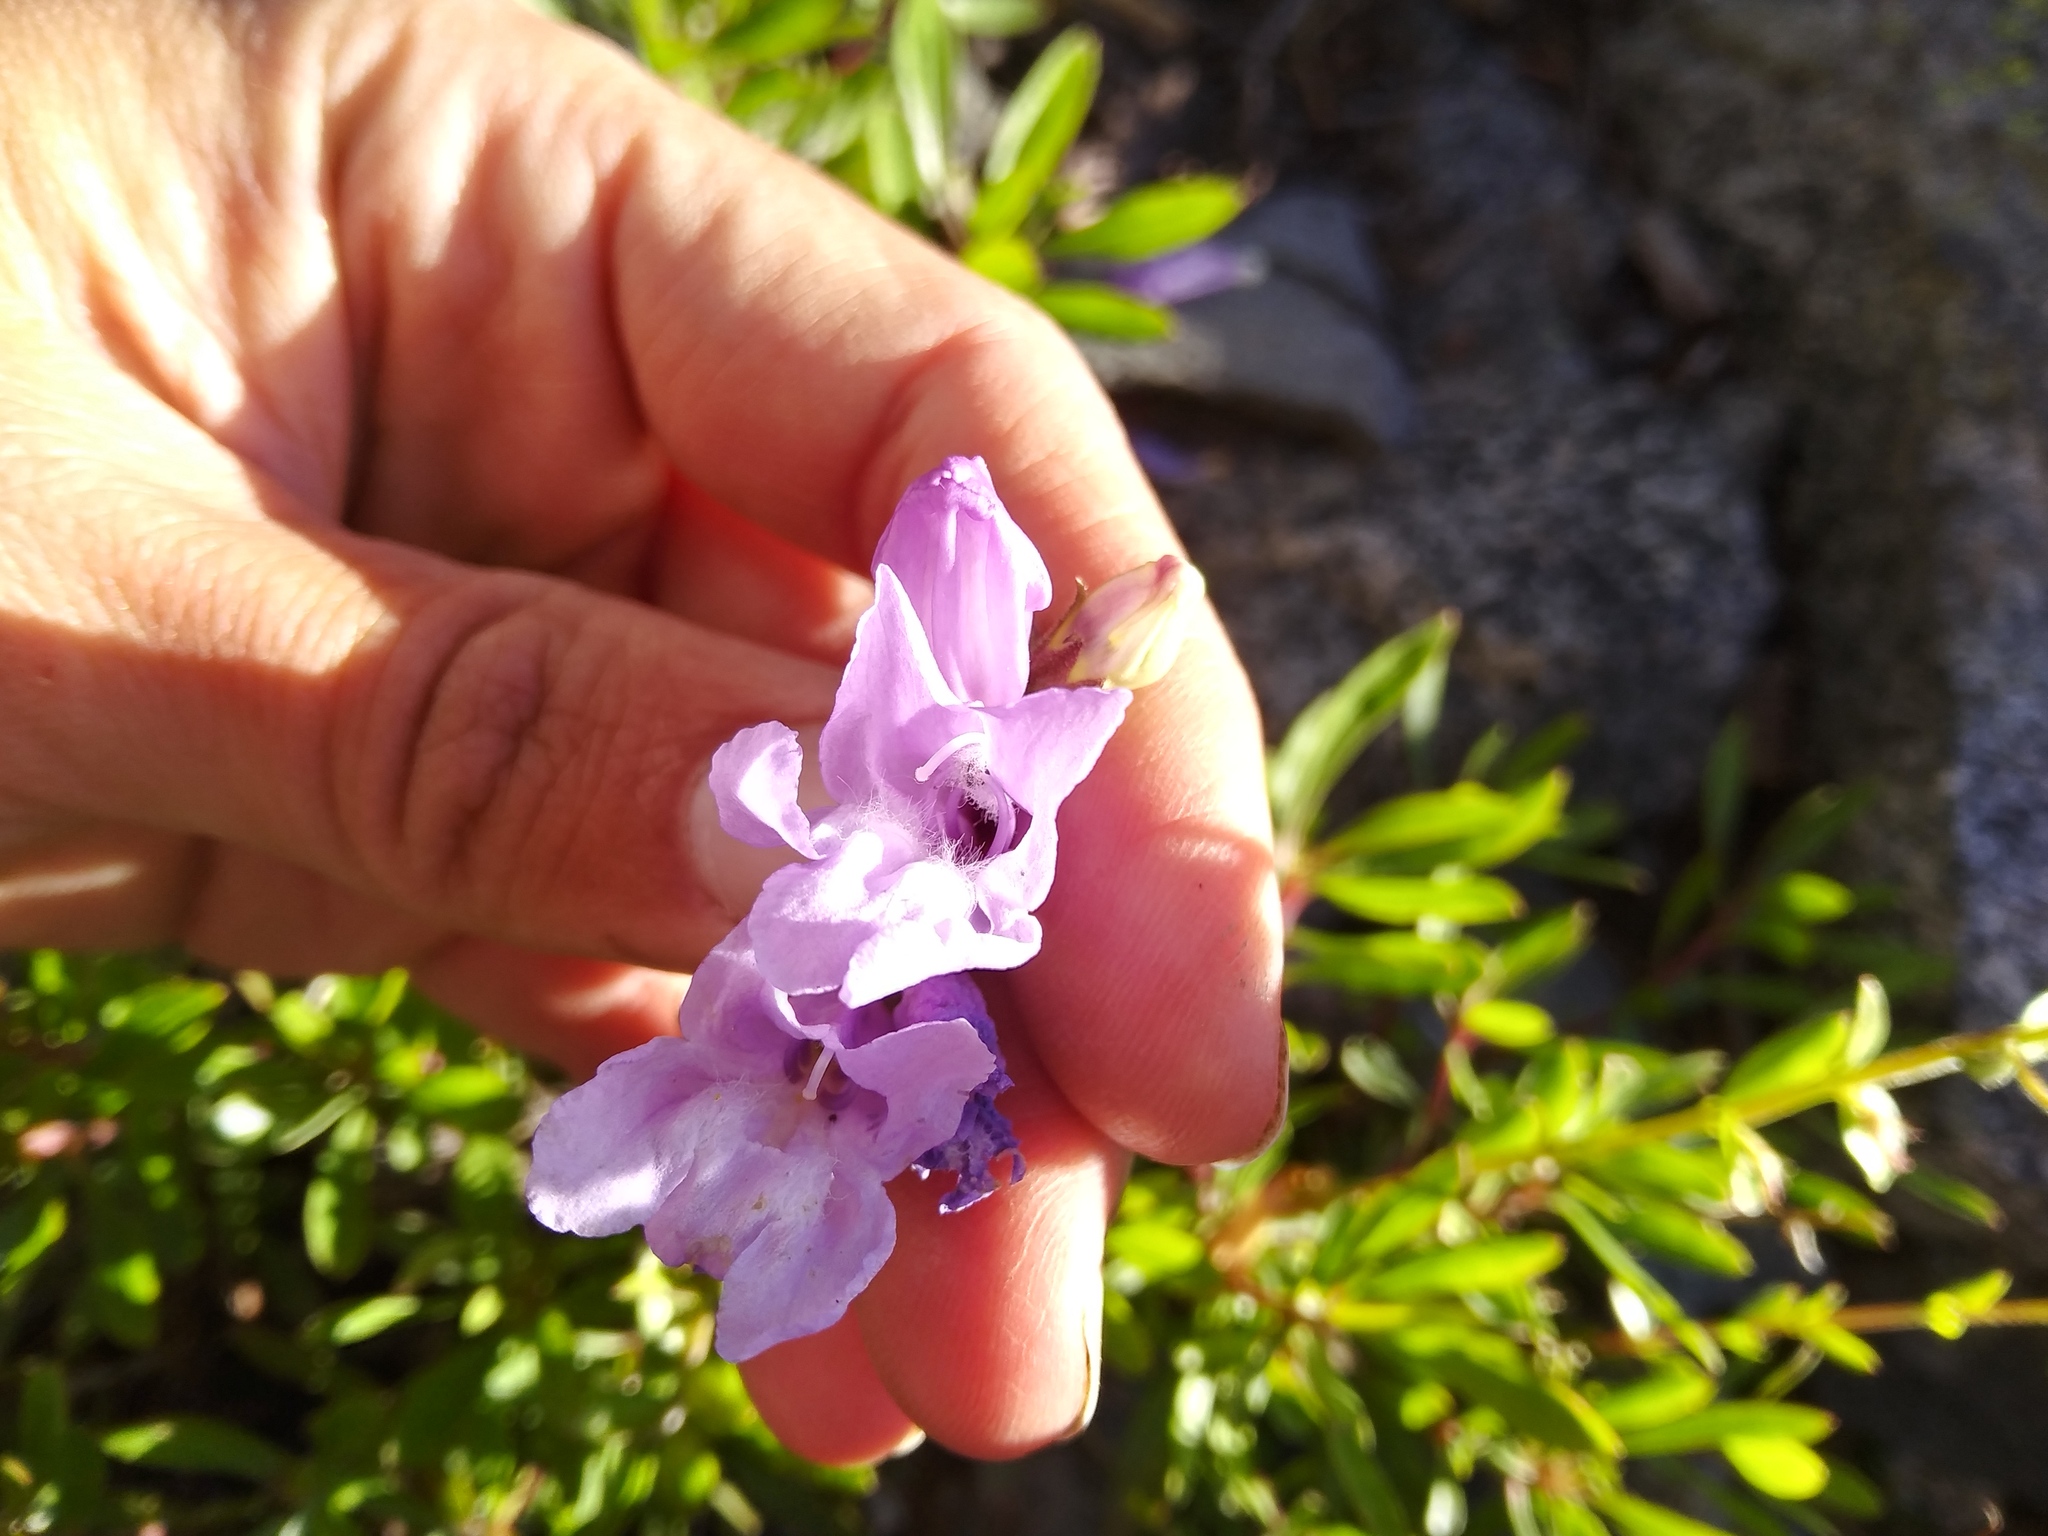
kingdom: Plantae
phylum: Tracheophyta
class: Magnoliopsida
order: Lamiales
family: Plantaginaceae
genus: Penstemon
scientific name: Penstemon fruticosus
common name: Bush penstemon
